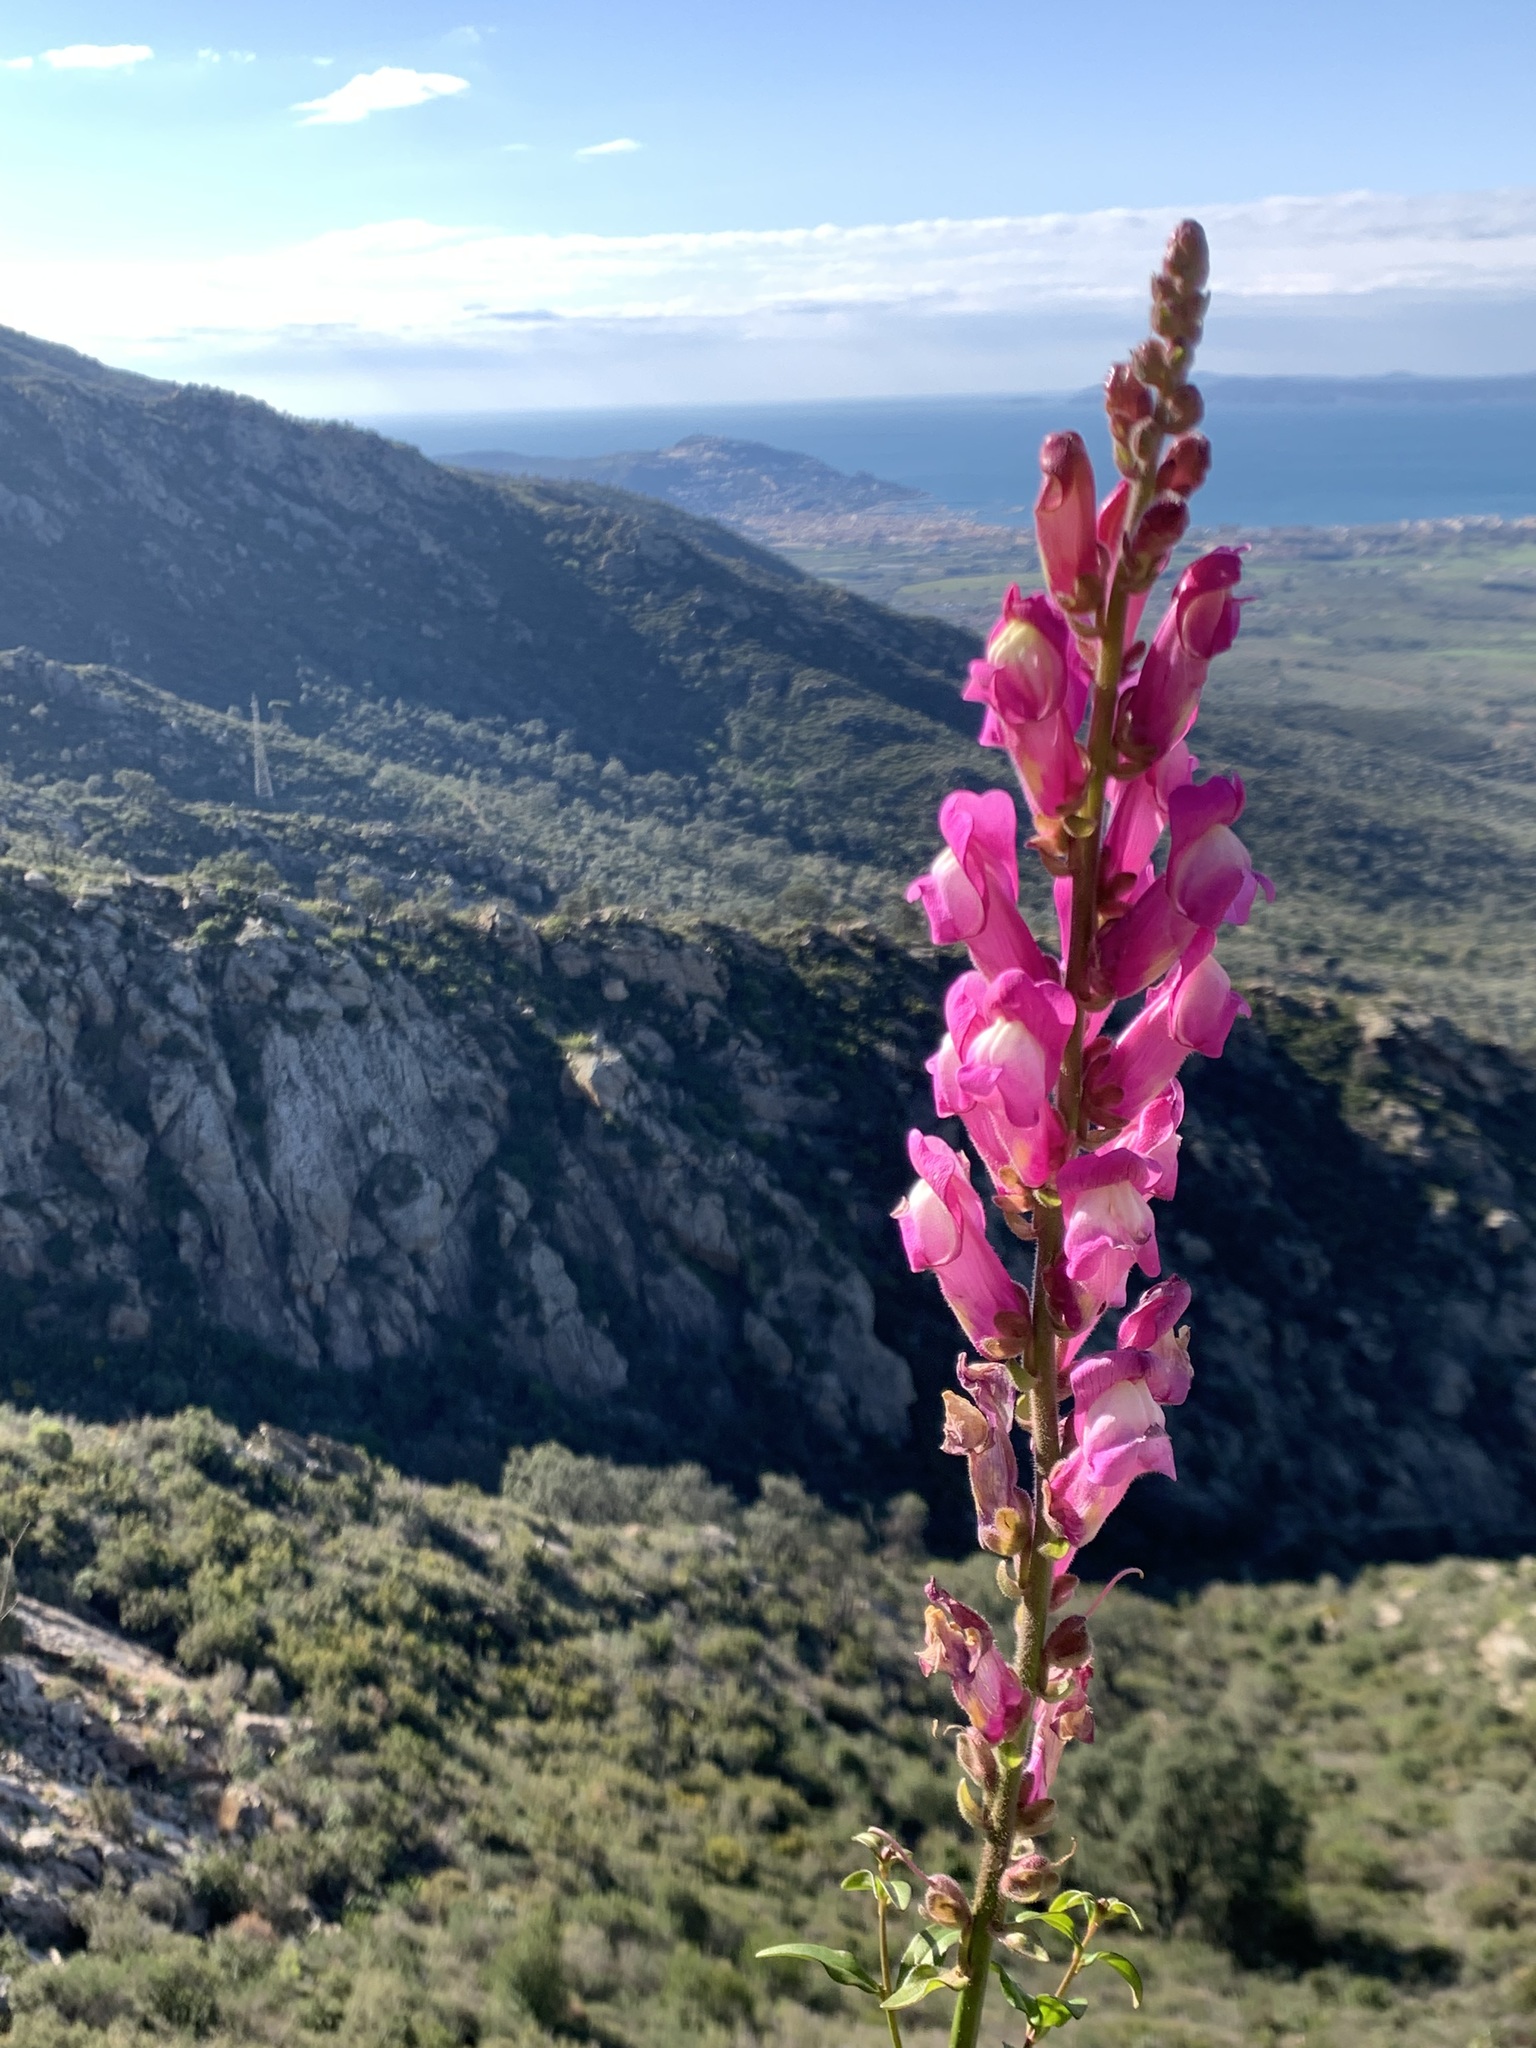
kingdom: Plantae
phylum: Tracheophyta
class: Magnoliopsida
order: Lamiales
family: Plantaginaceae
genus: Antirrhinum
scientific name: Antirrhinum majus
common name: Snapdragon
